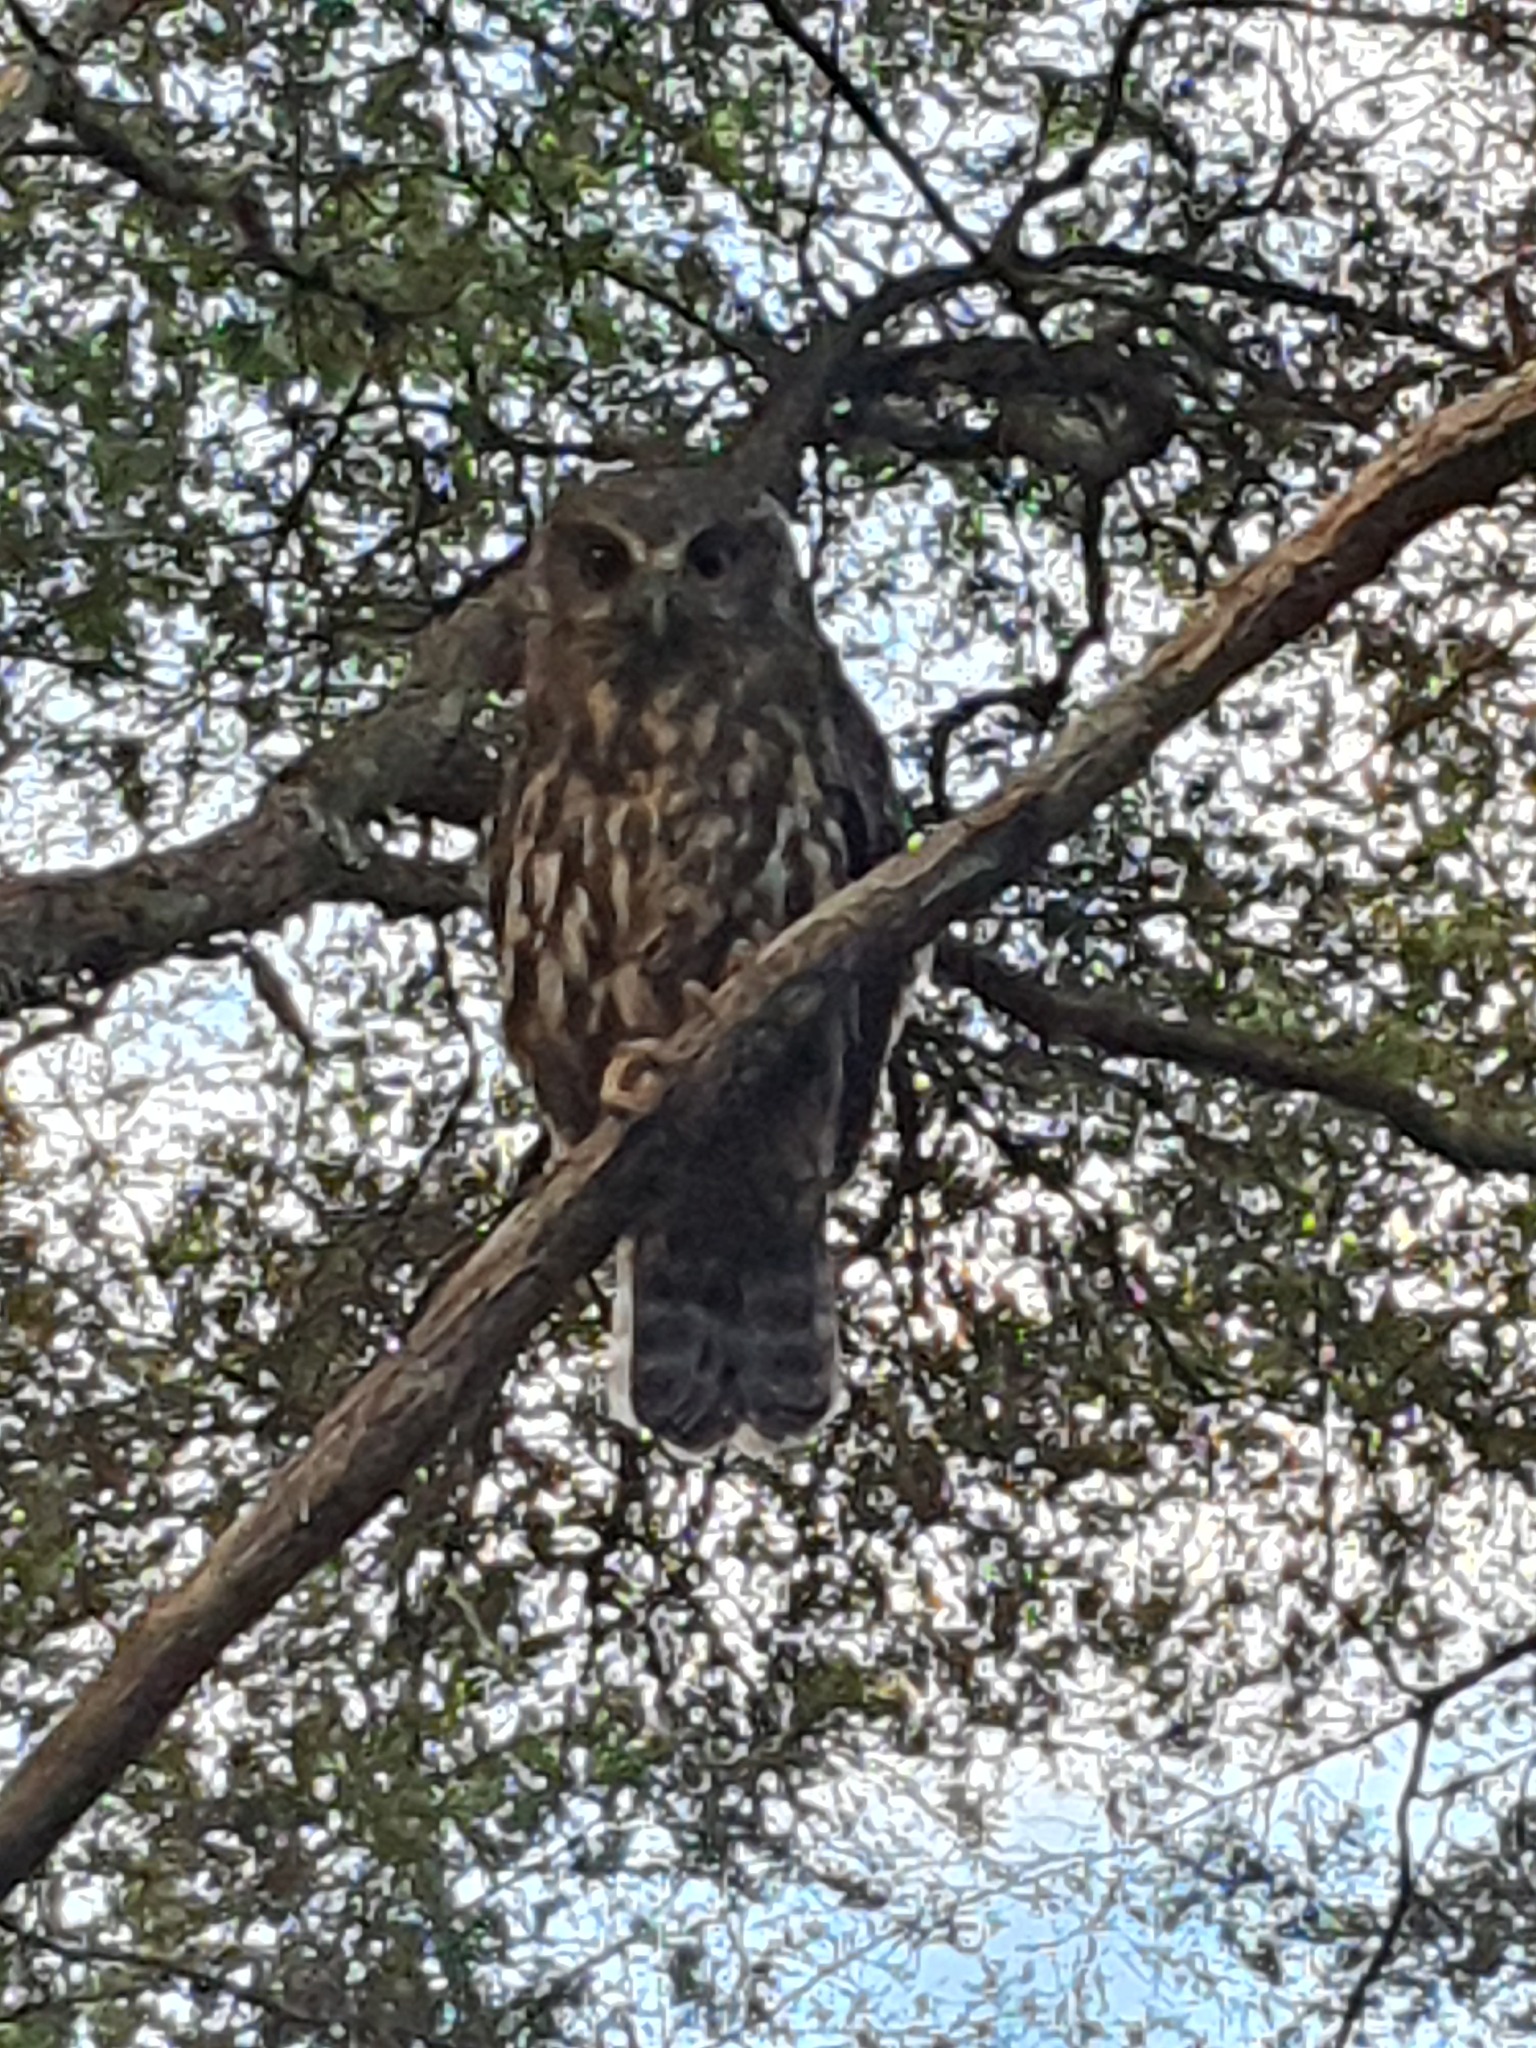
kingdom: Animalia
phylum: Chordata
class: Aves
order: Strigiformes
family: Strigidae
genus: Ninox
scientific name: Ninox novaeseelandiae
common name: Morepork
